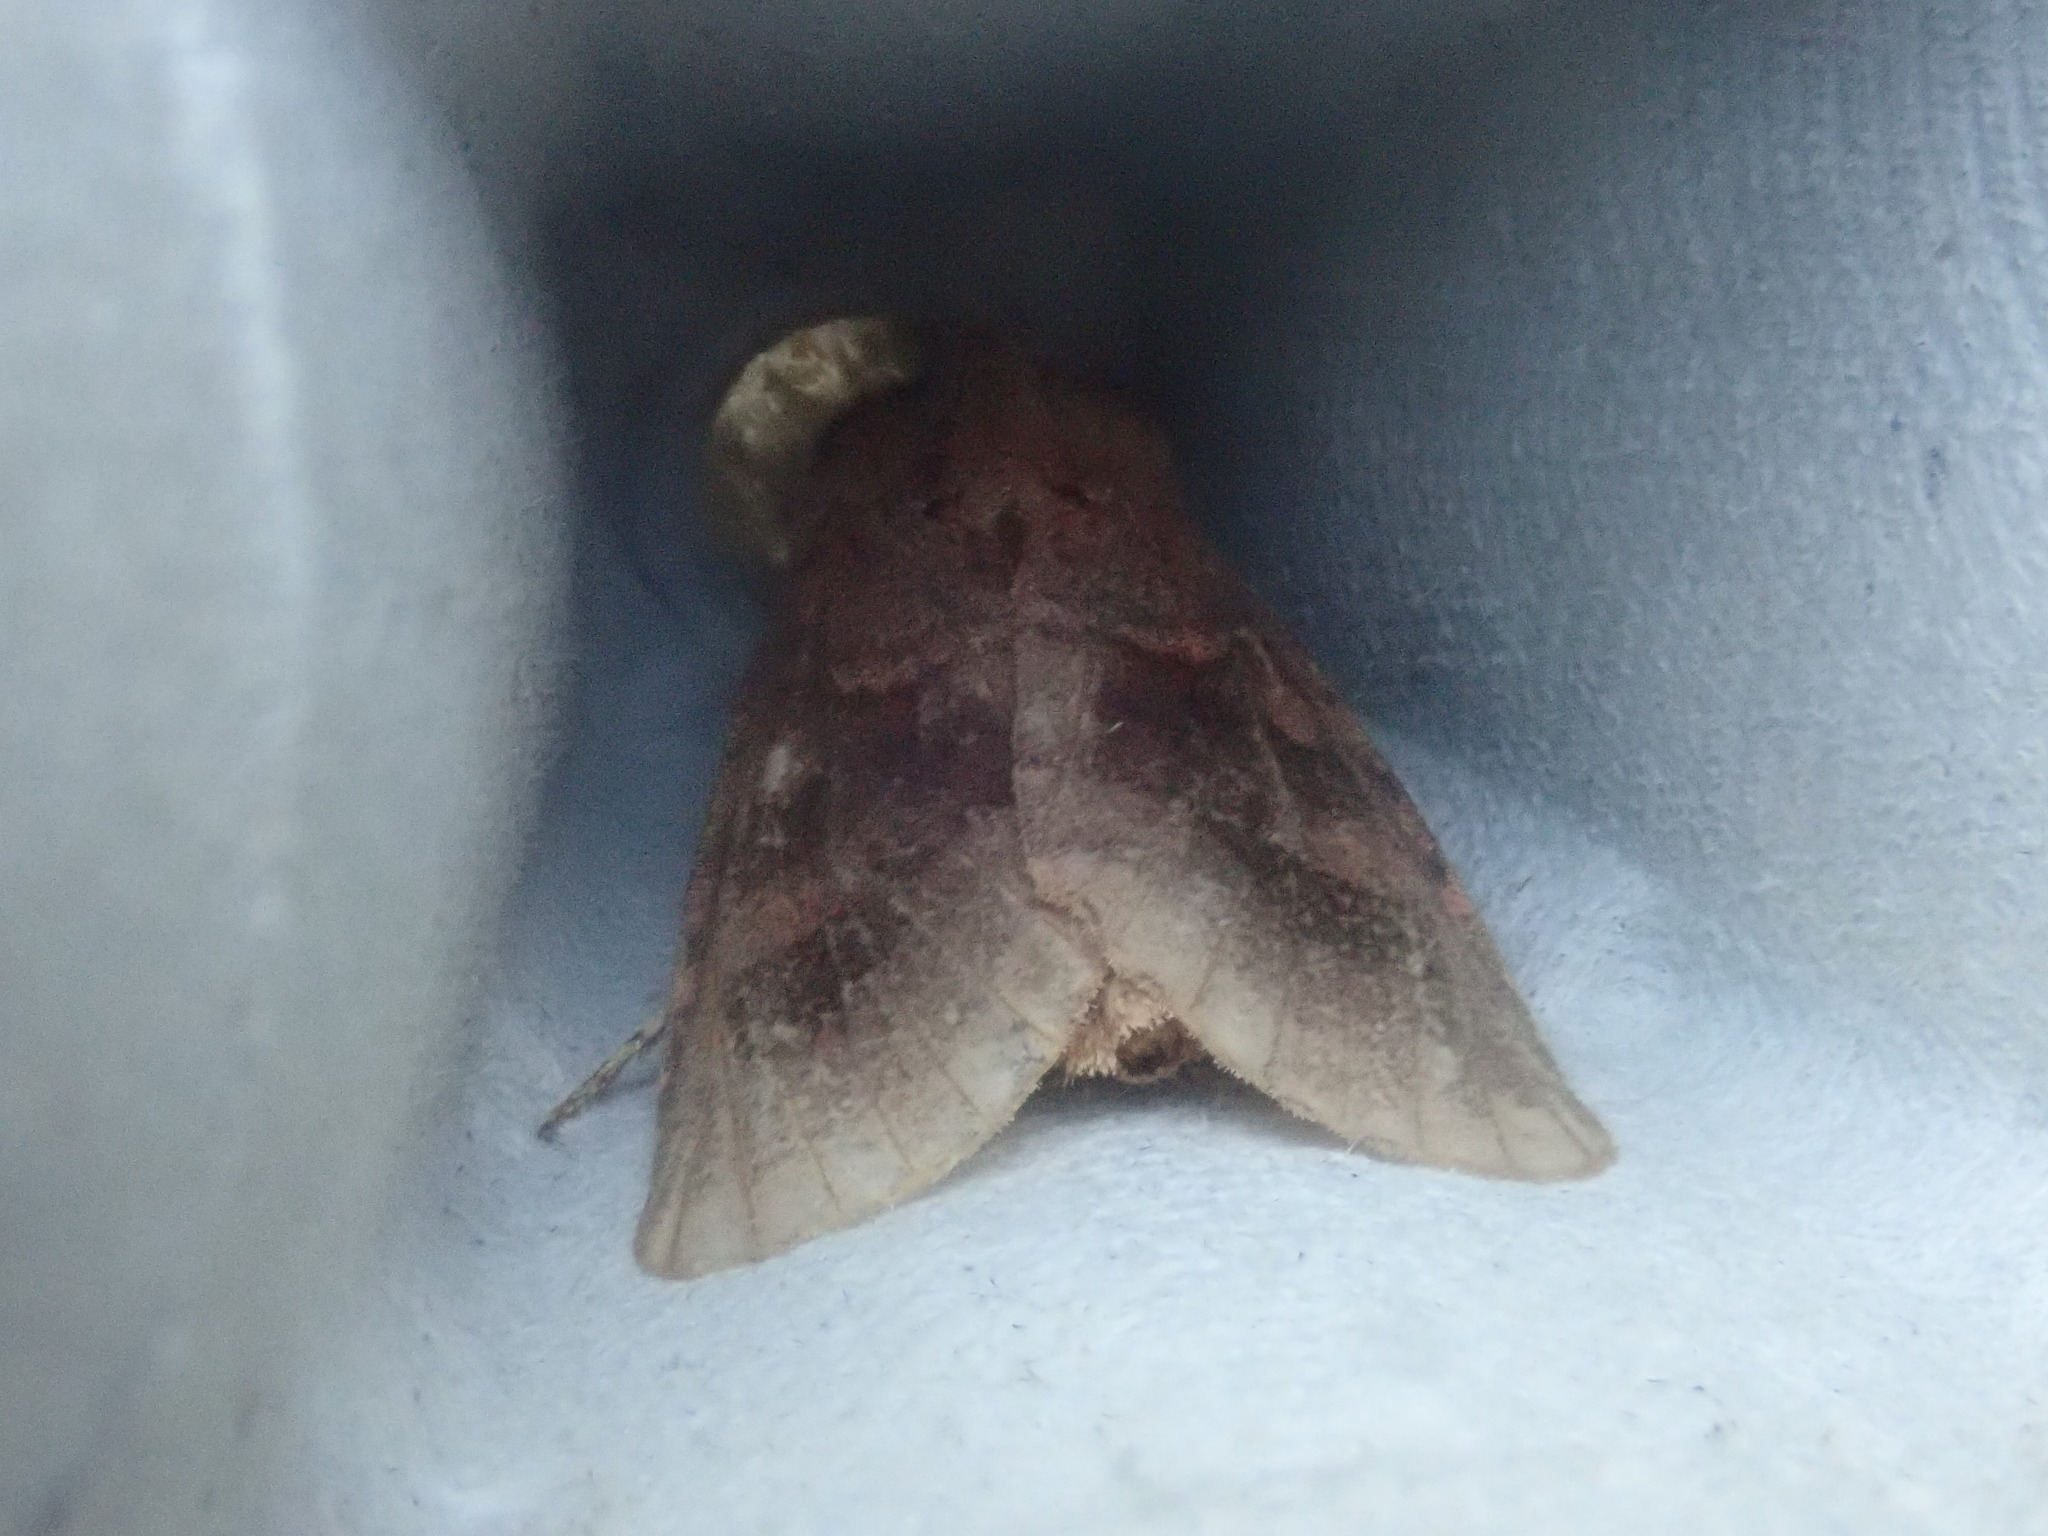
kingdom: Animalia
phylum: Arthropoda
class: Insecta
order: Lepidoptera
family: Noctuidae
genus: Nephelodes
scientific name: Nephelodes minians
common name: Bronzed cutworm
